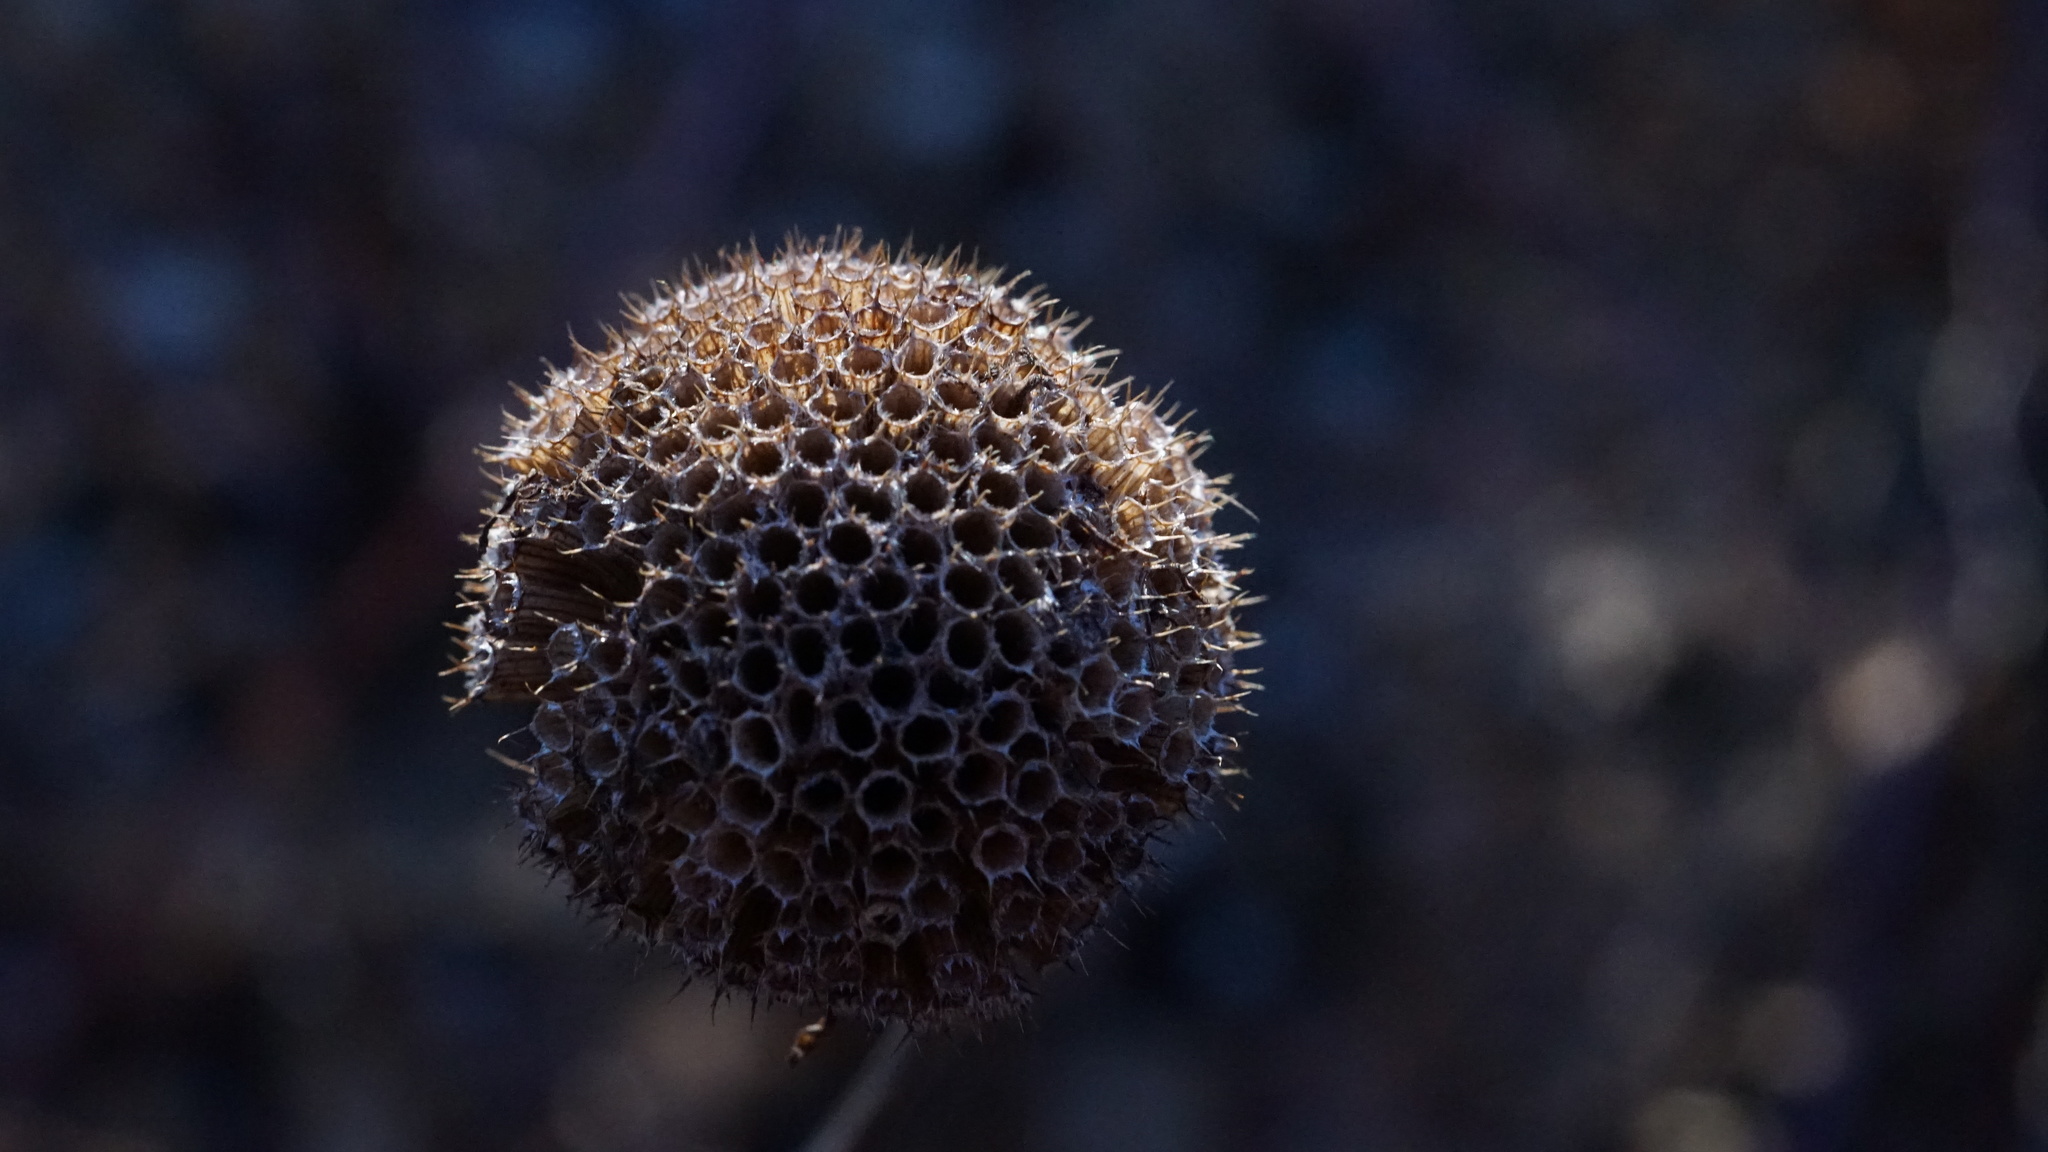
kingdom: Plantae
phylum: Tracheophyta
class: Magnoliopsida
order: Lamiales
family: Lamiaceae
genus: Monarda
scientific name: Monarda fistulosa
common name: Purple beebalm
